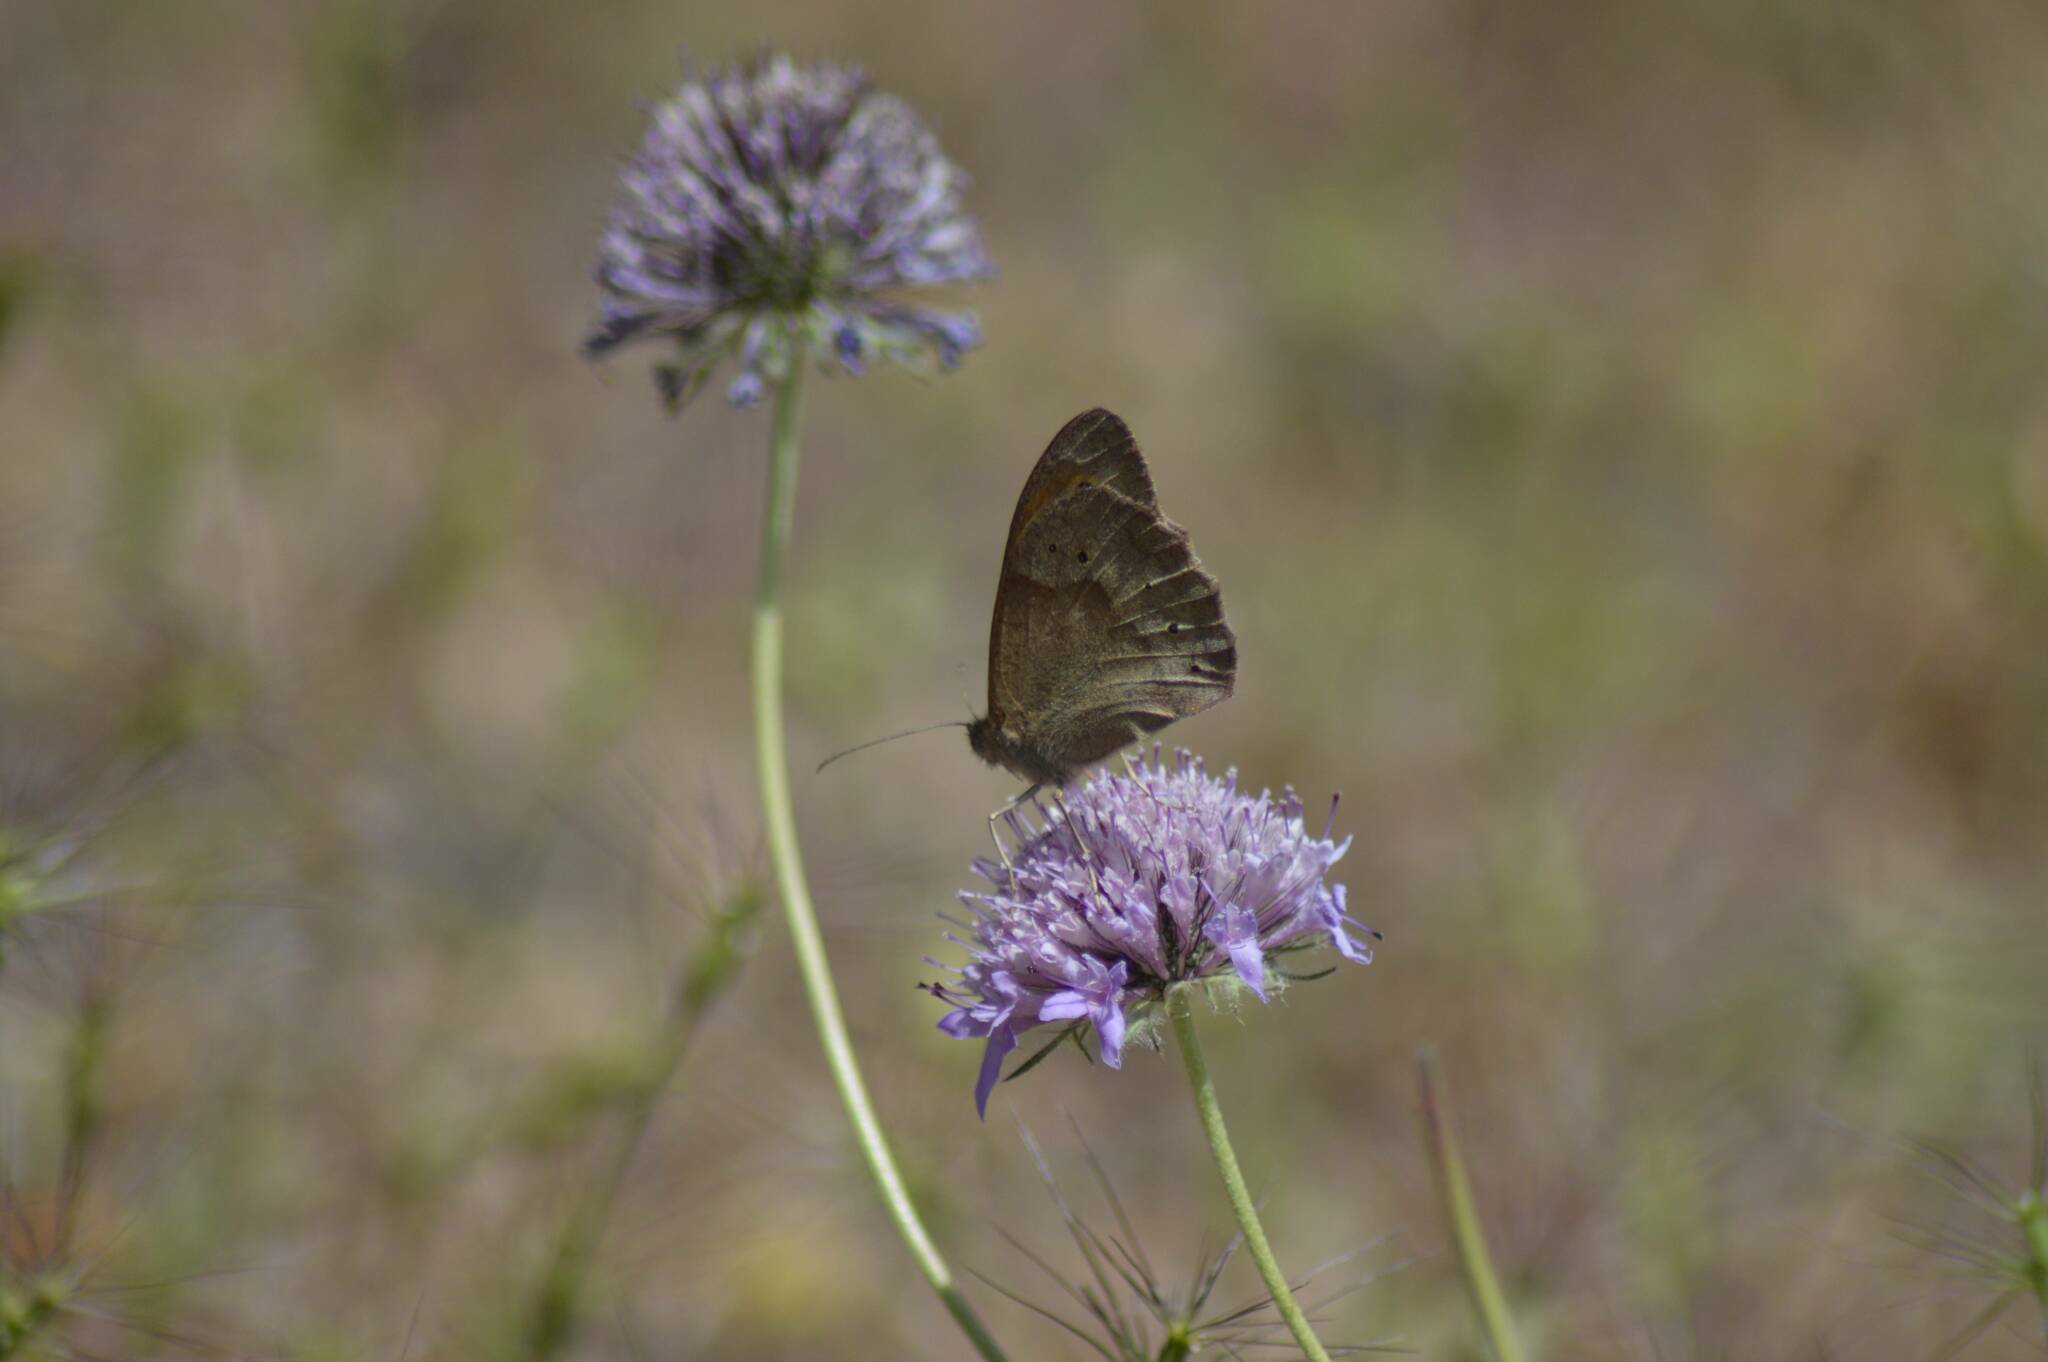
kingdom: Animalia
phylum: Arthropoda
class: Insecta
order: Lepidoptera
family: Nymphalidae
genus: Maniola
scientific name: Maniola jurtina
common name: Meadow brown
